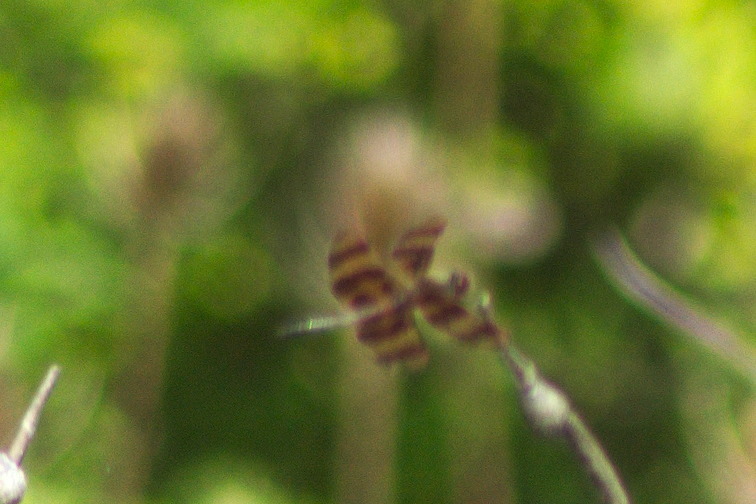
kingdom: Animalia
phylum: Arthropoda
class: Insecta
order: Odonata
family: Libellulidae
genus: Celithemis
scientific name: Celithemis eponina
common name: Halloween pennant
